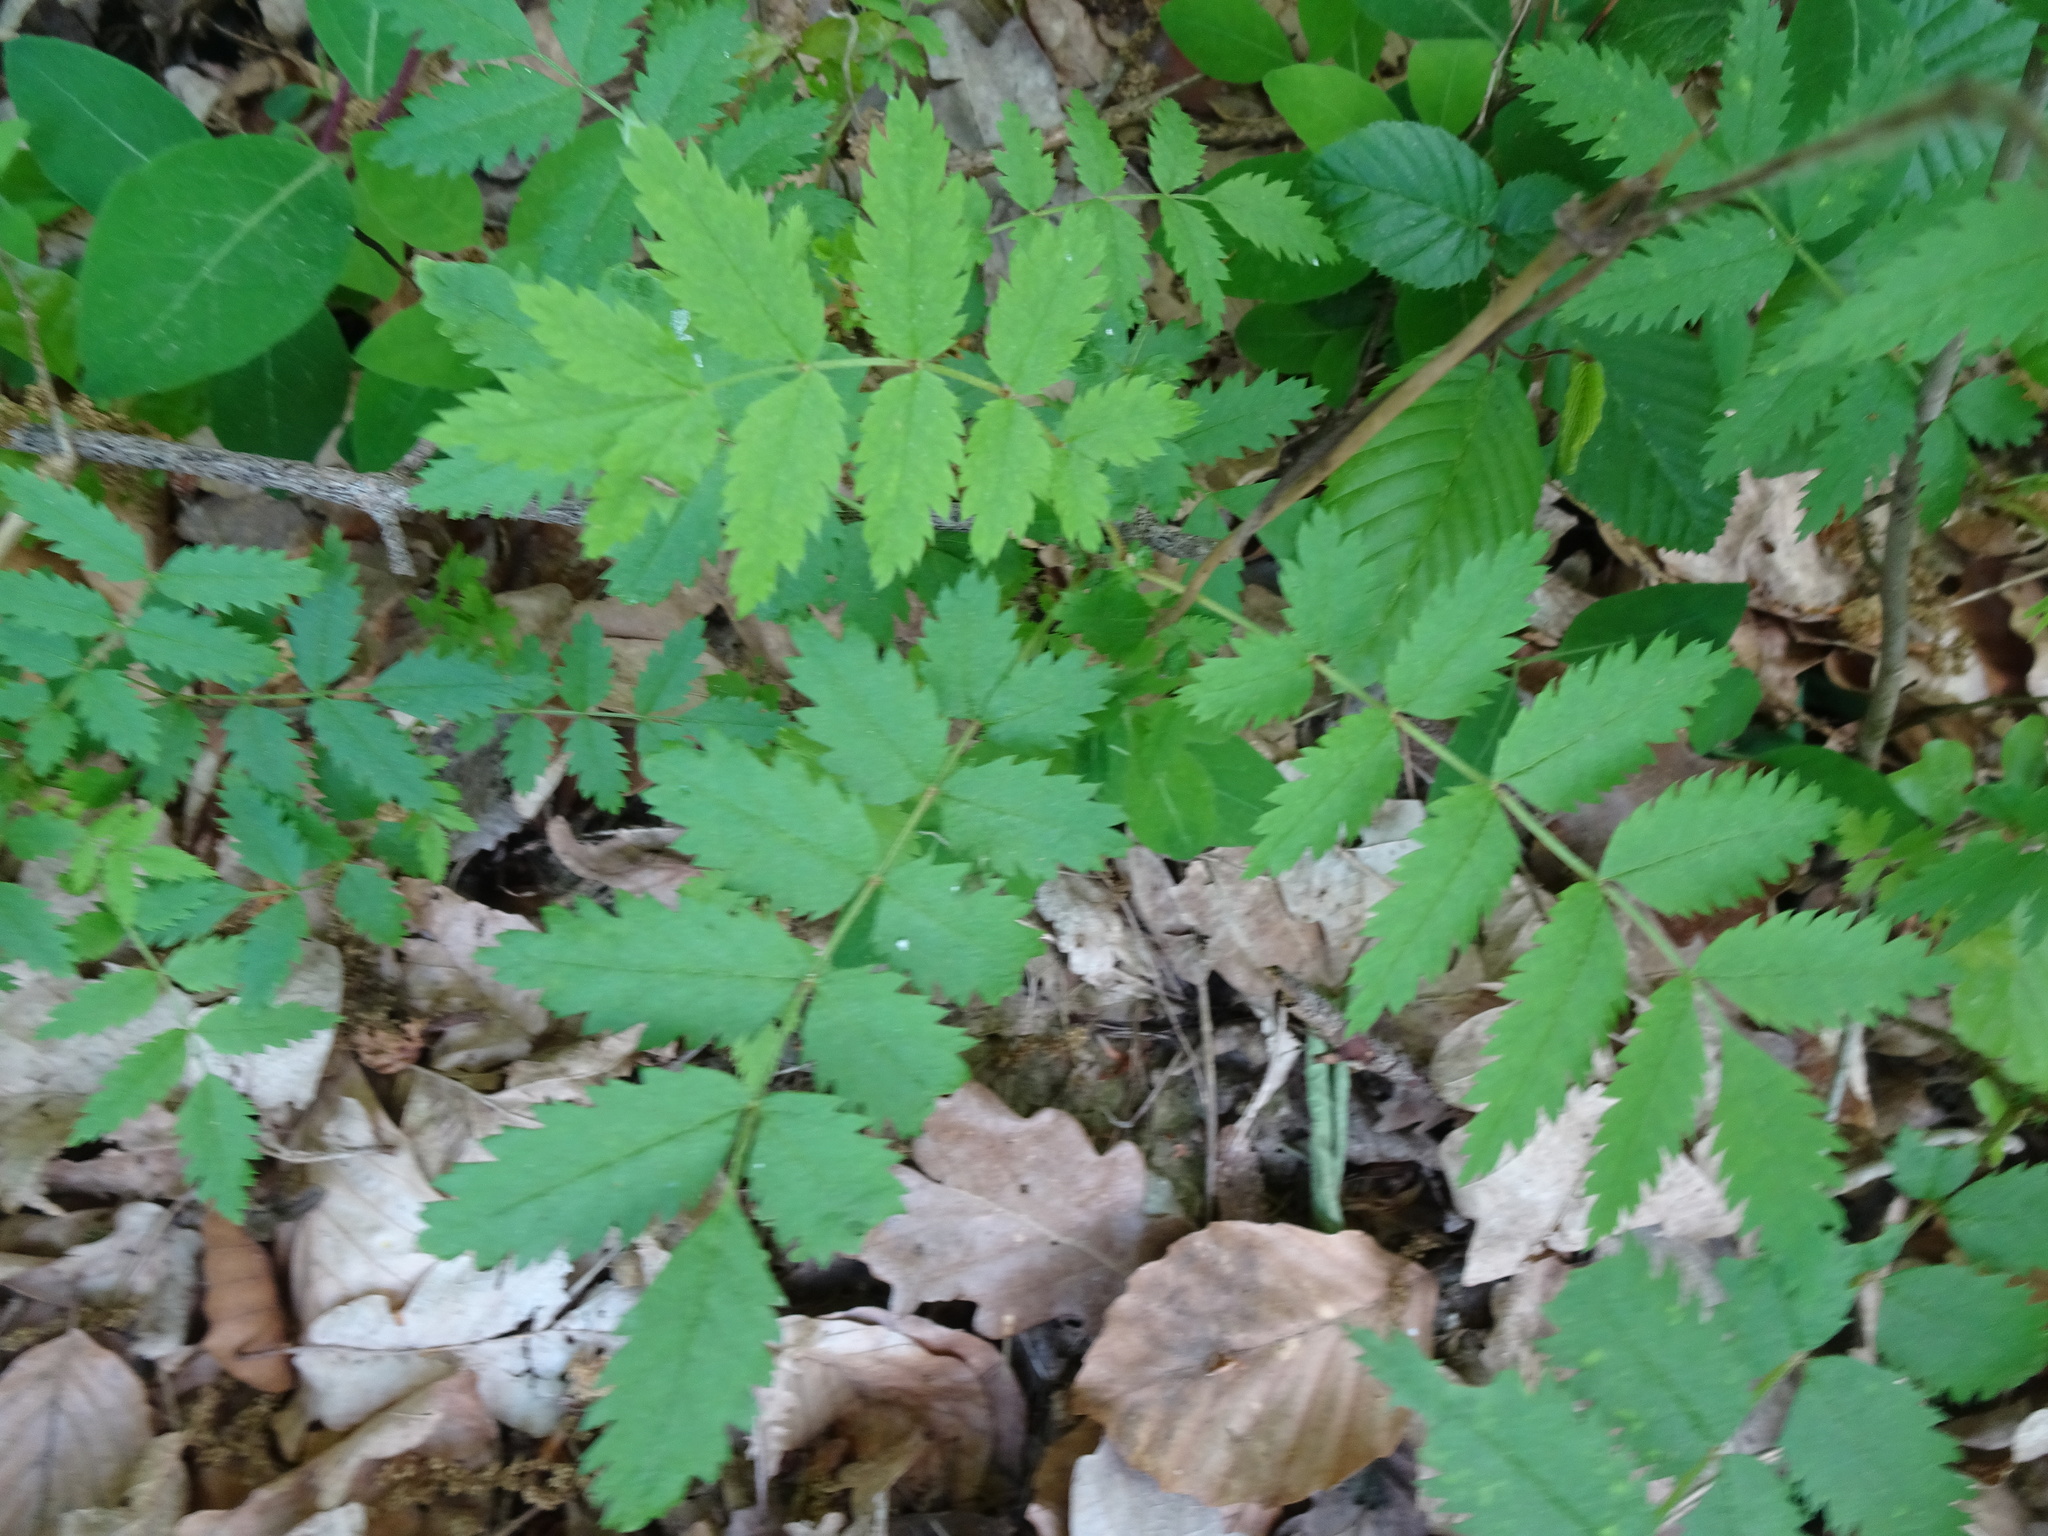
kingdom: Plantae
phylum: Tracheophyta
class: Magnoliopsida
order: Rosales
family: Rosaceae
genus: Sorbus
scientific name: Sorbus aucuparia
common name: Rowan
